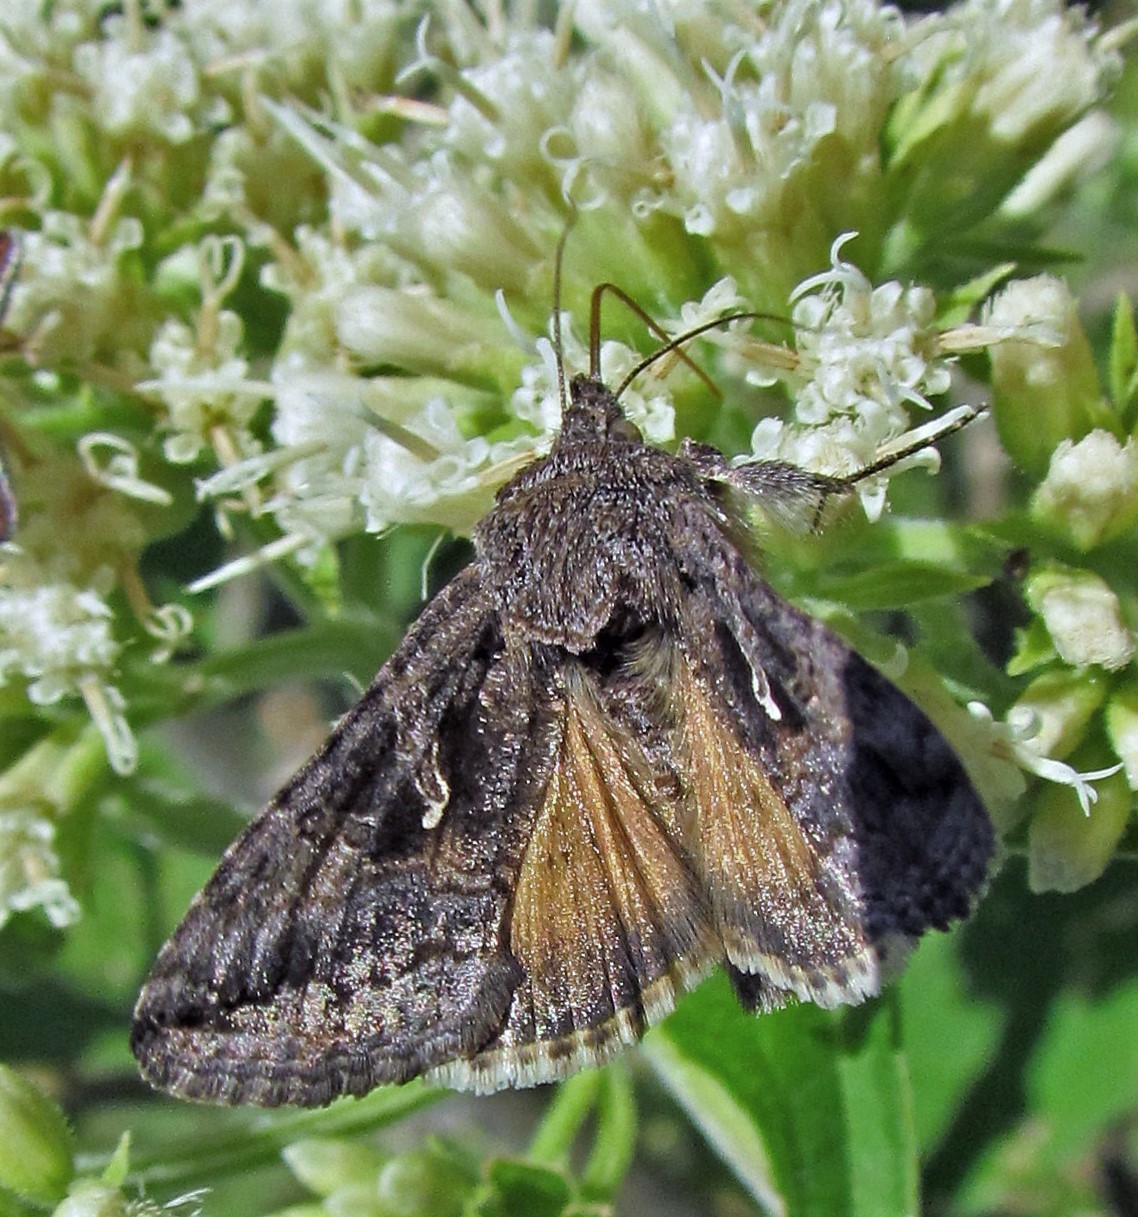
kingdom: Animalia
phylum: Arthropoda
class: Insecta
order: Lepidoptera
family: Noctuidae
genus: Rachiplusia
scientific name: Rachiplusia nu
